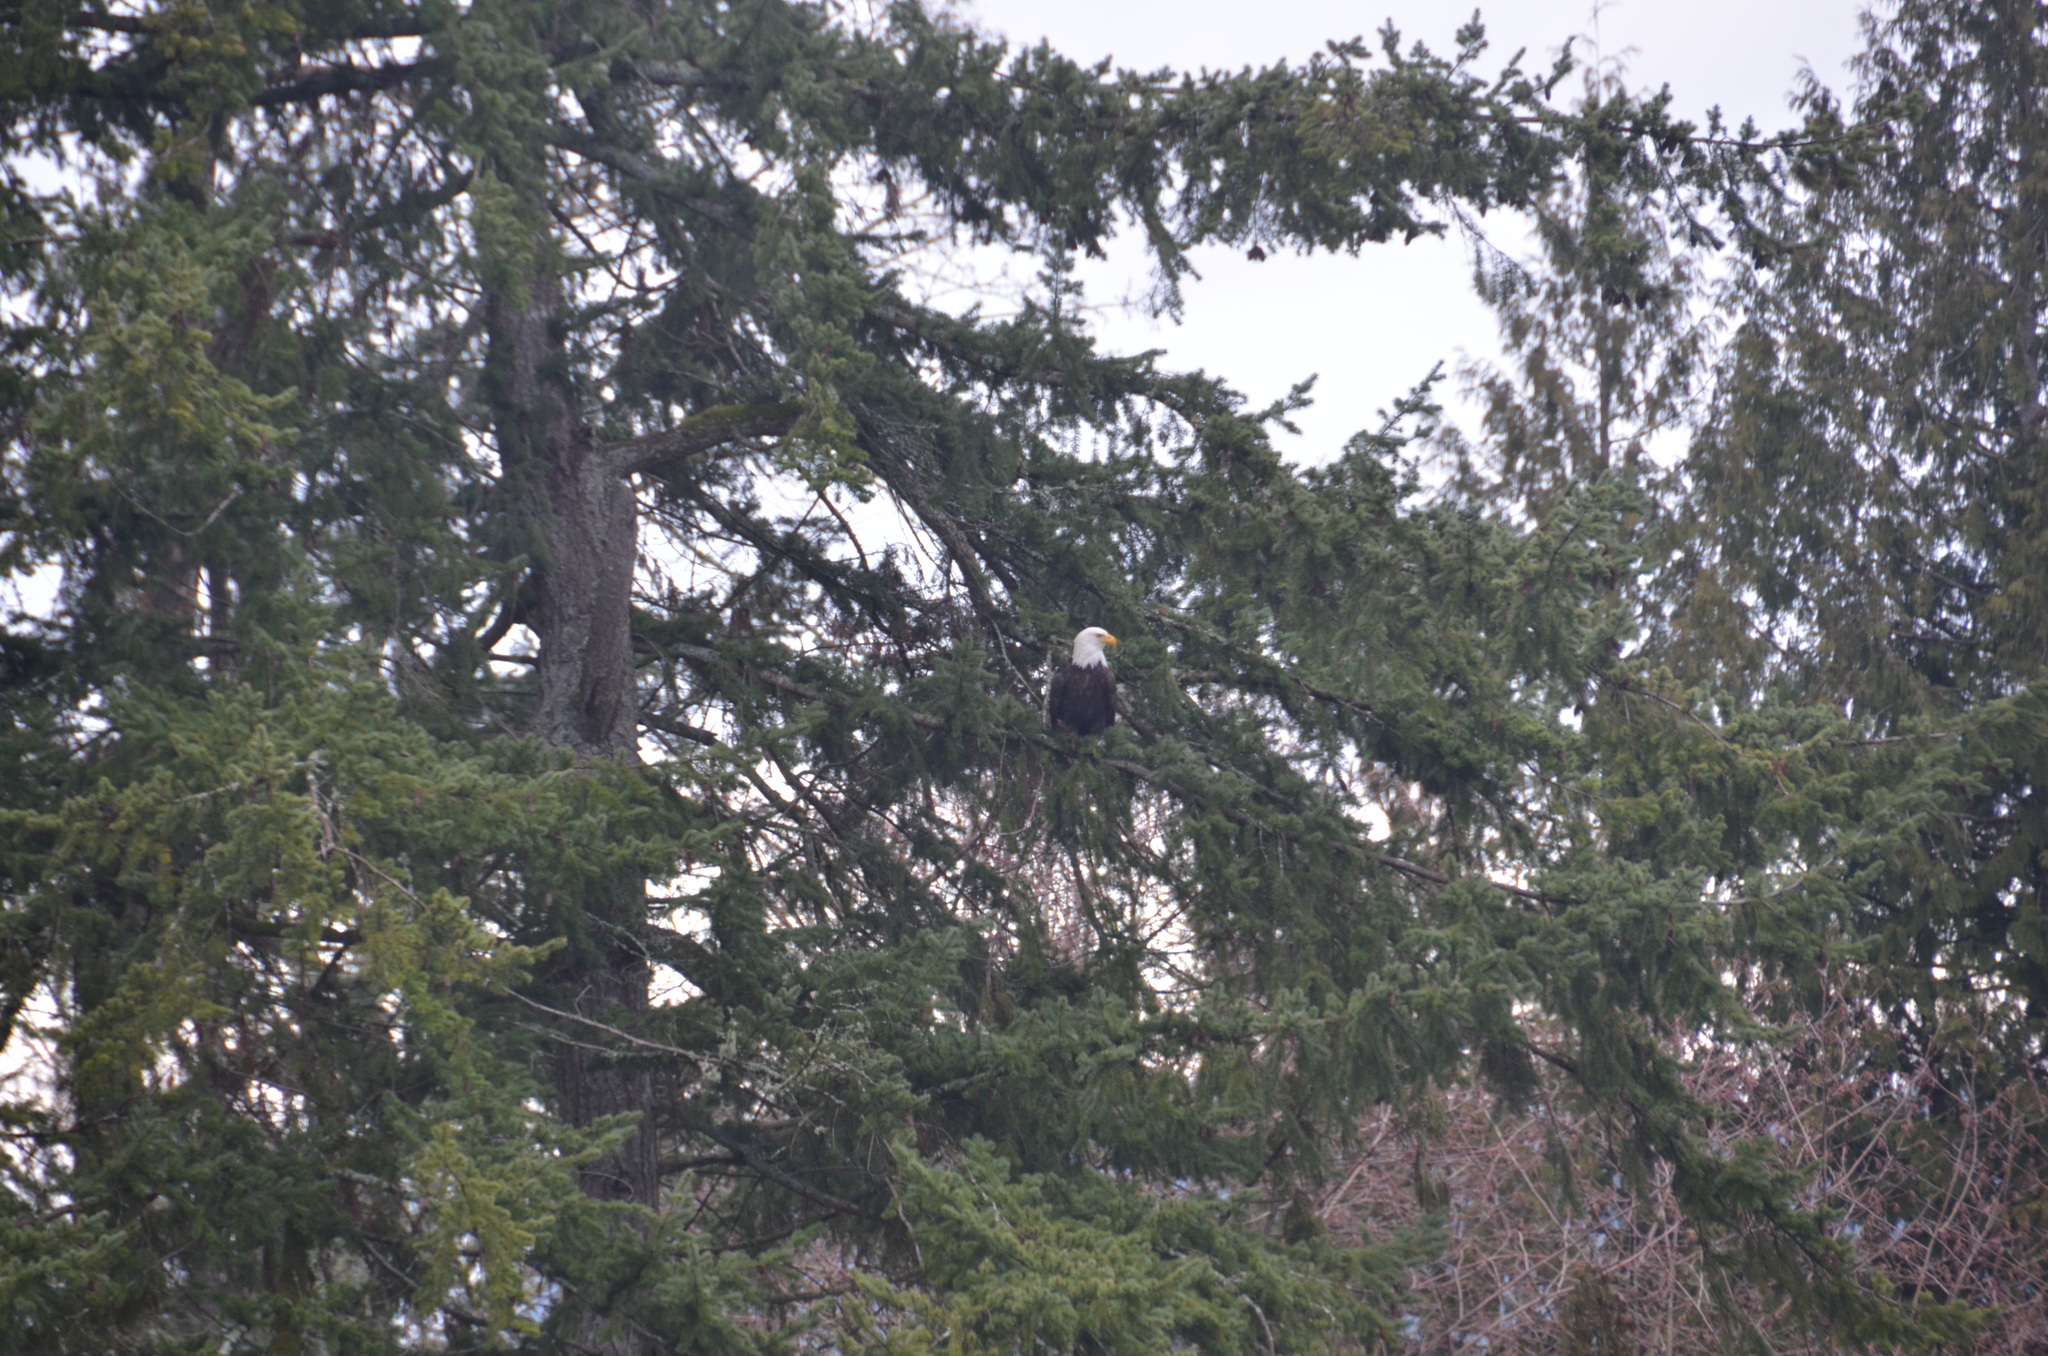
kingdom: Animalia
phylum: Chordata
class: Aves
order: Accipitriformes
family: Accipitridae
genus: Haliaeetus
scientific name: Haliaeetus leucocephalus
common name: Bald eagle
